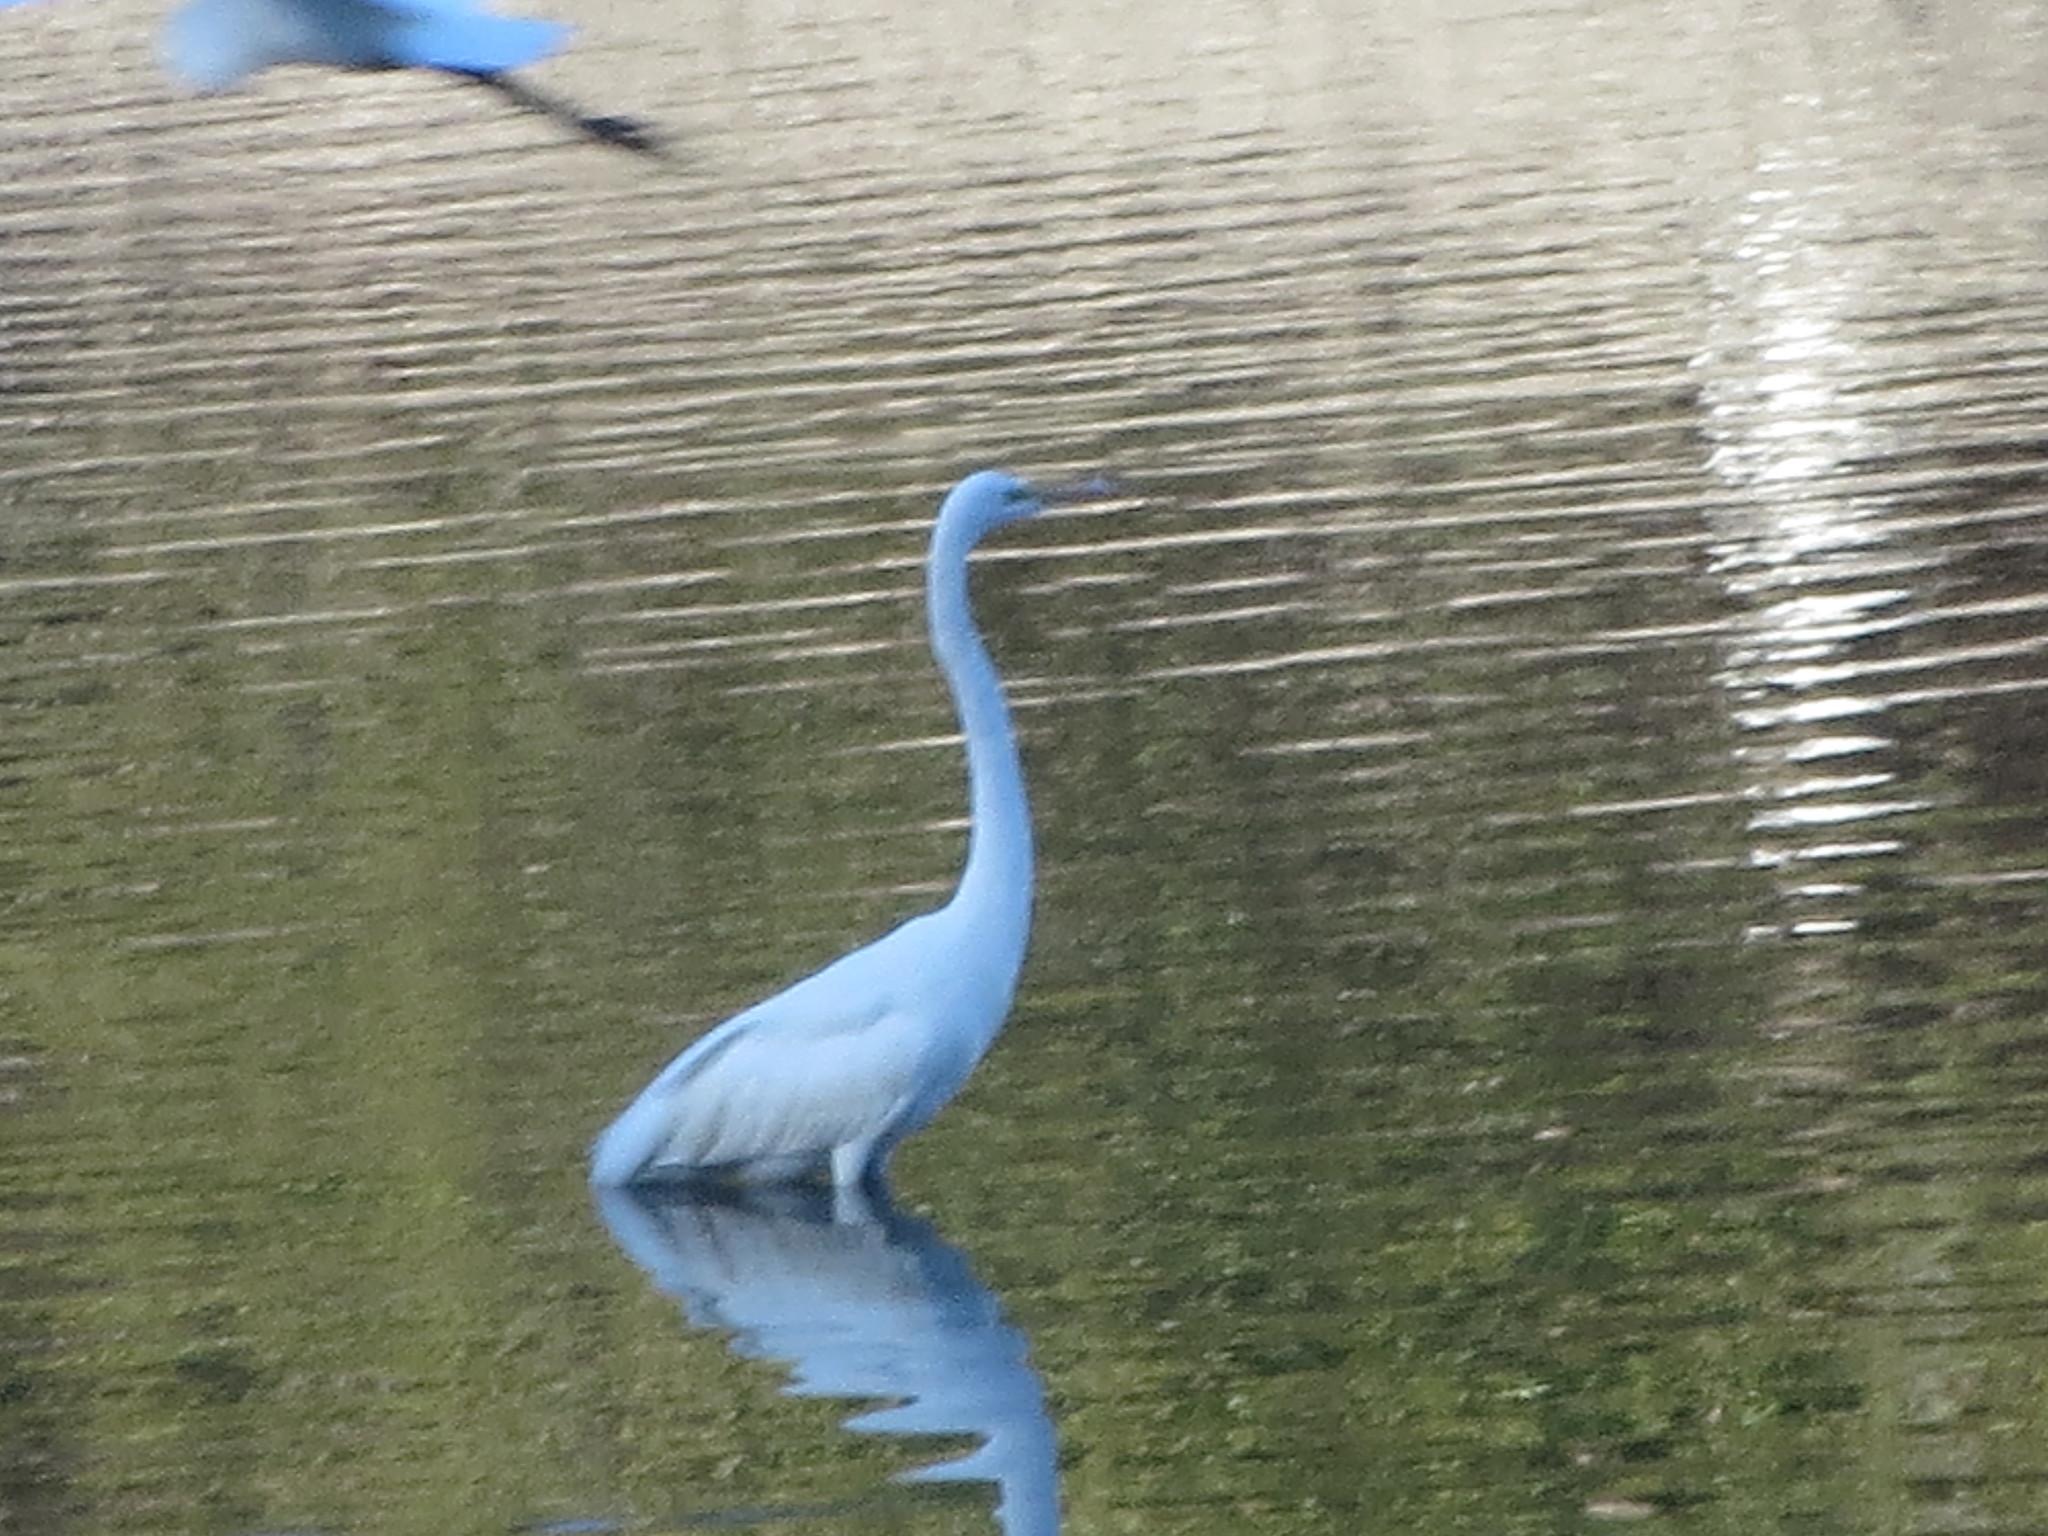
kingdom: Animalia
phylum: Chordata
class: Aves
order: Pelecaniformes
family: Ardeidae
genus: Ardea
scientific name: Ardea alba
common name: Great egret
